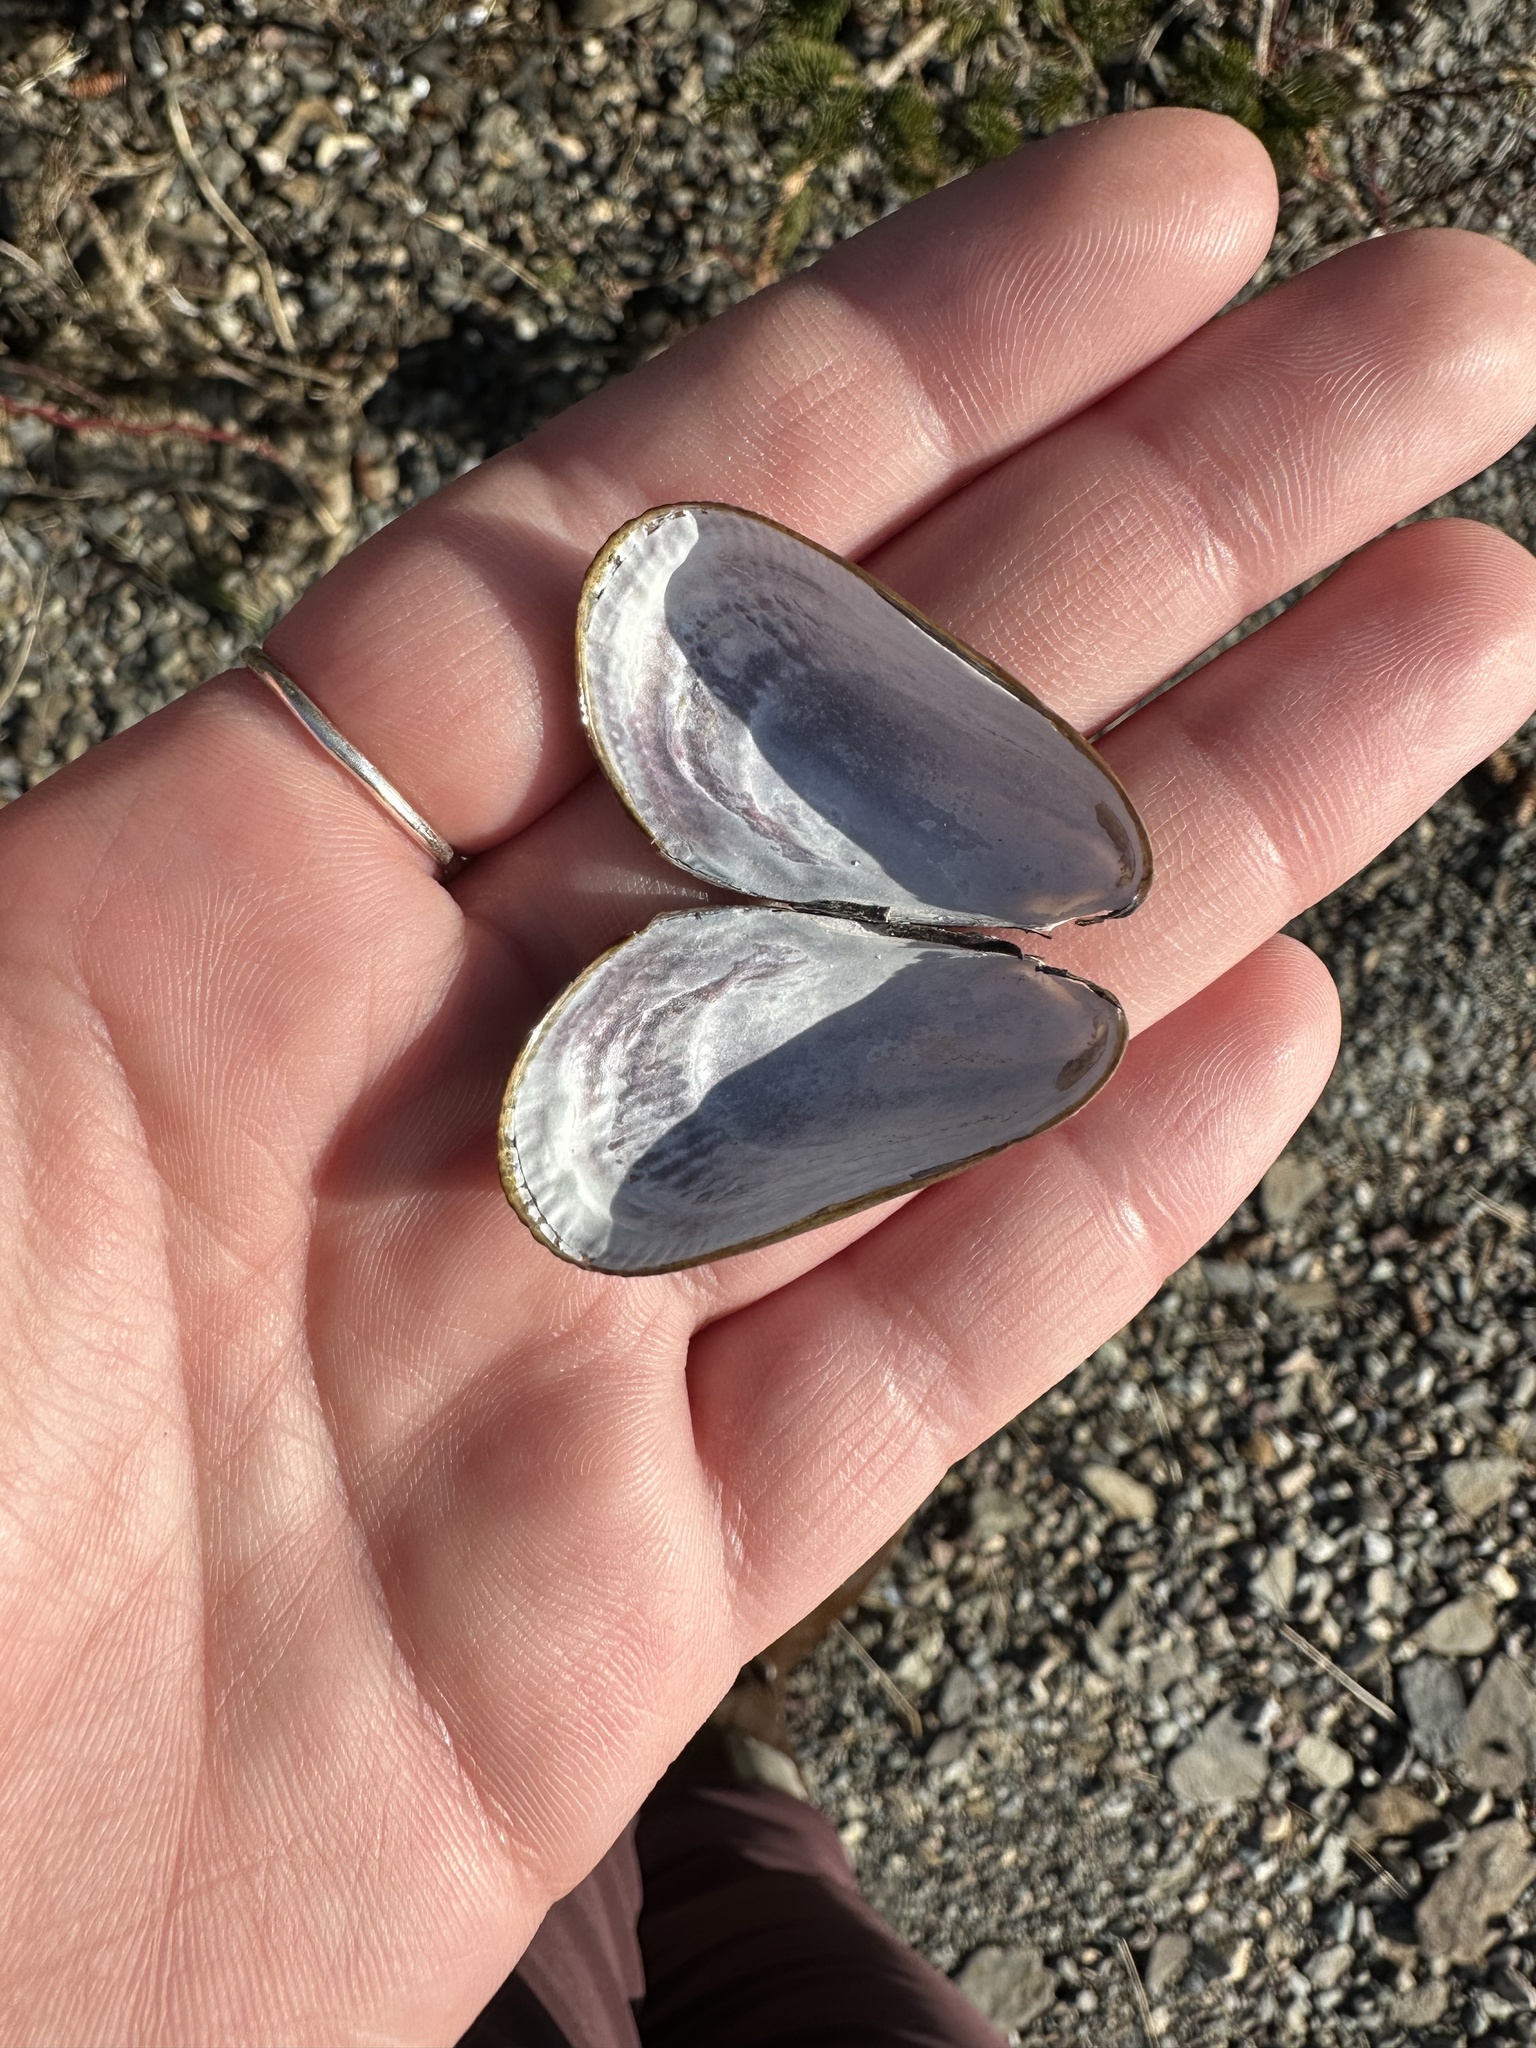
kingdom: Animalia
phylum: Mollusca
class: Bivalvia
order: Mytilida
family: Mytilidae
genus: Geukensia
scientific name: Geukensia demissa
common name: Ribbed mussel
